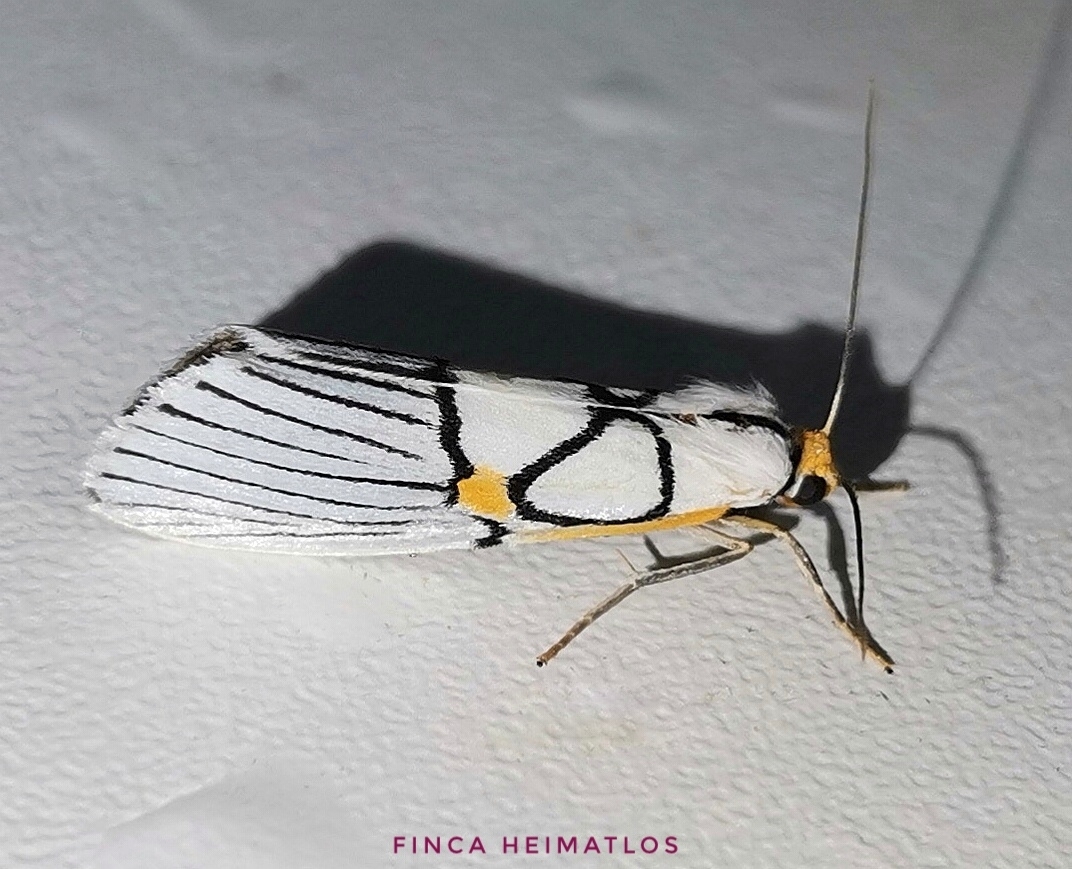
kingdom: Animalia
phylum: Arthropoda
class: Insecta
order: Lepidoptera
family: Notodontidae
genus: Scotura
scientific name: Scotura annulata
